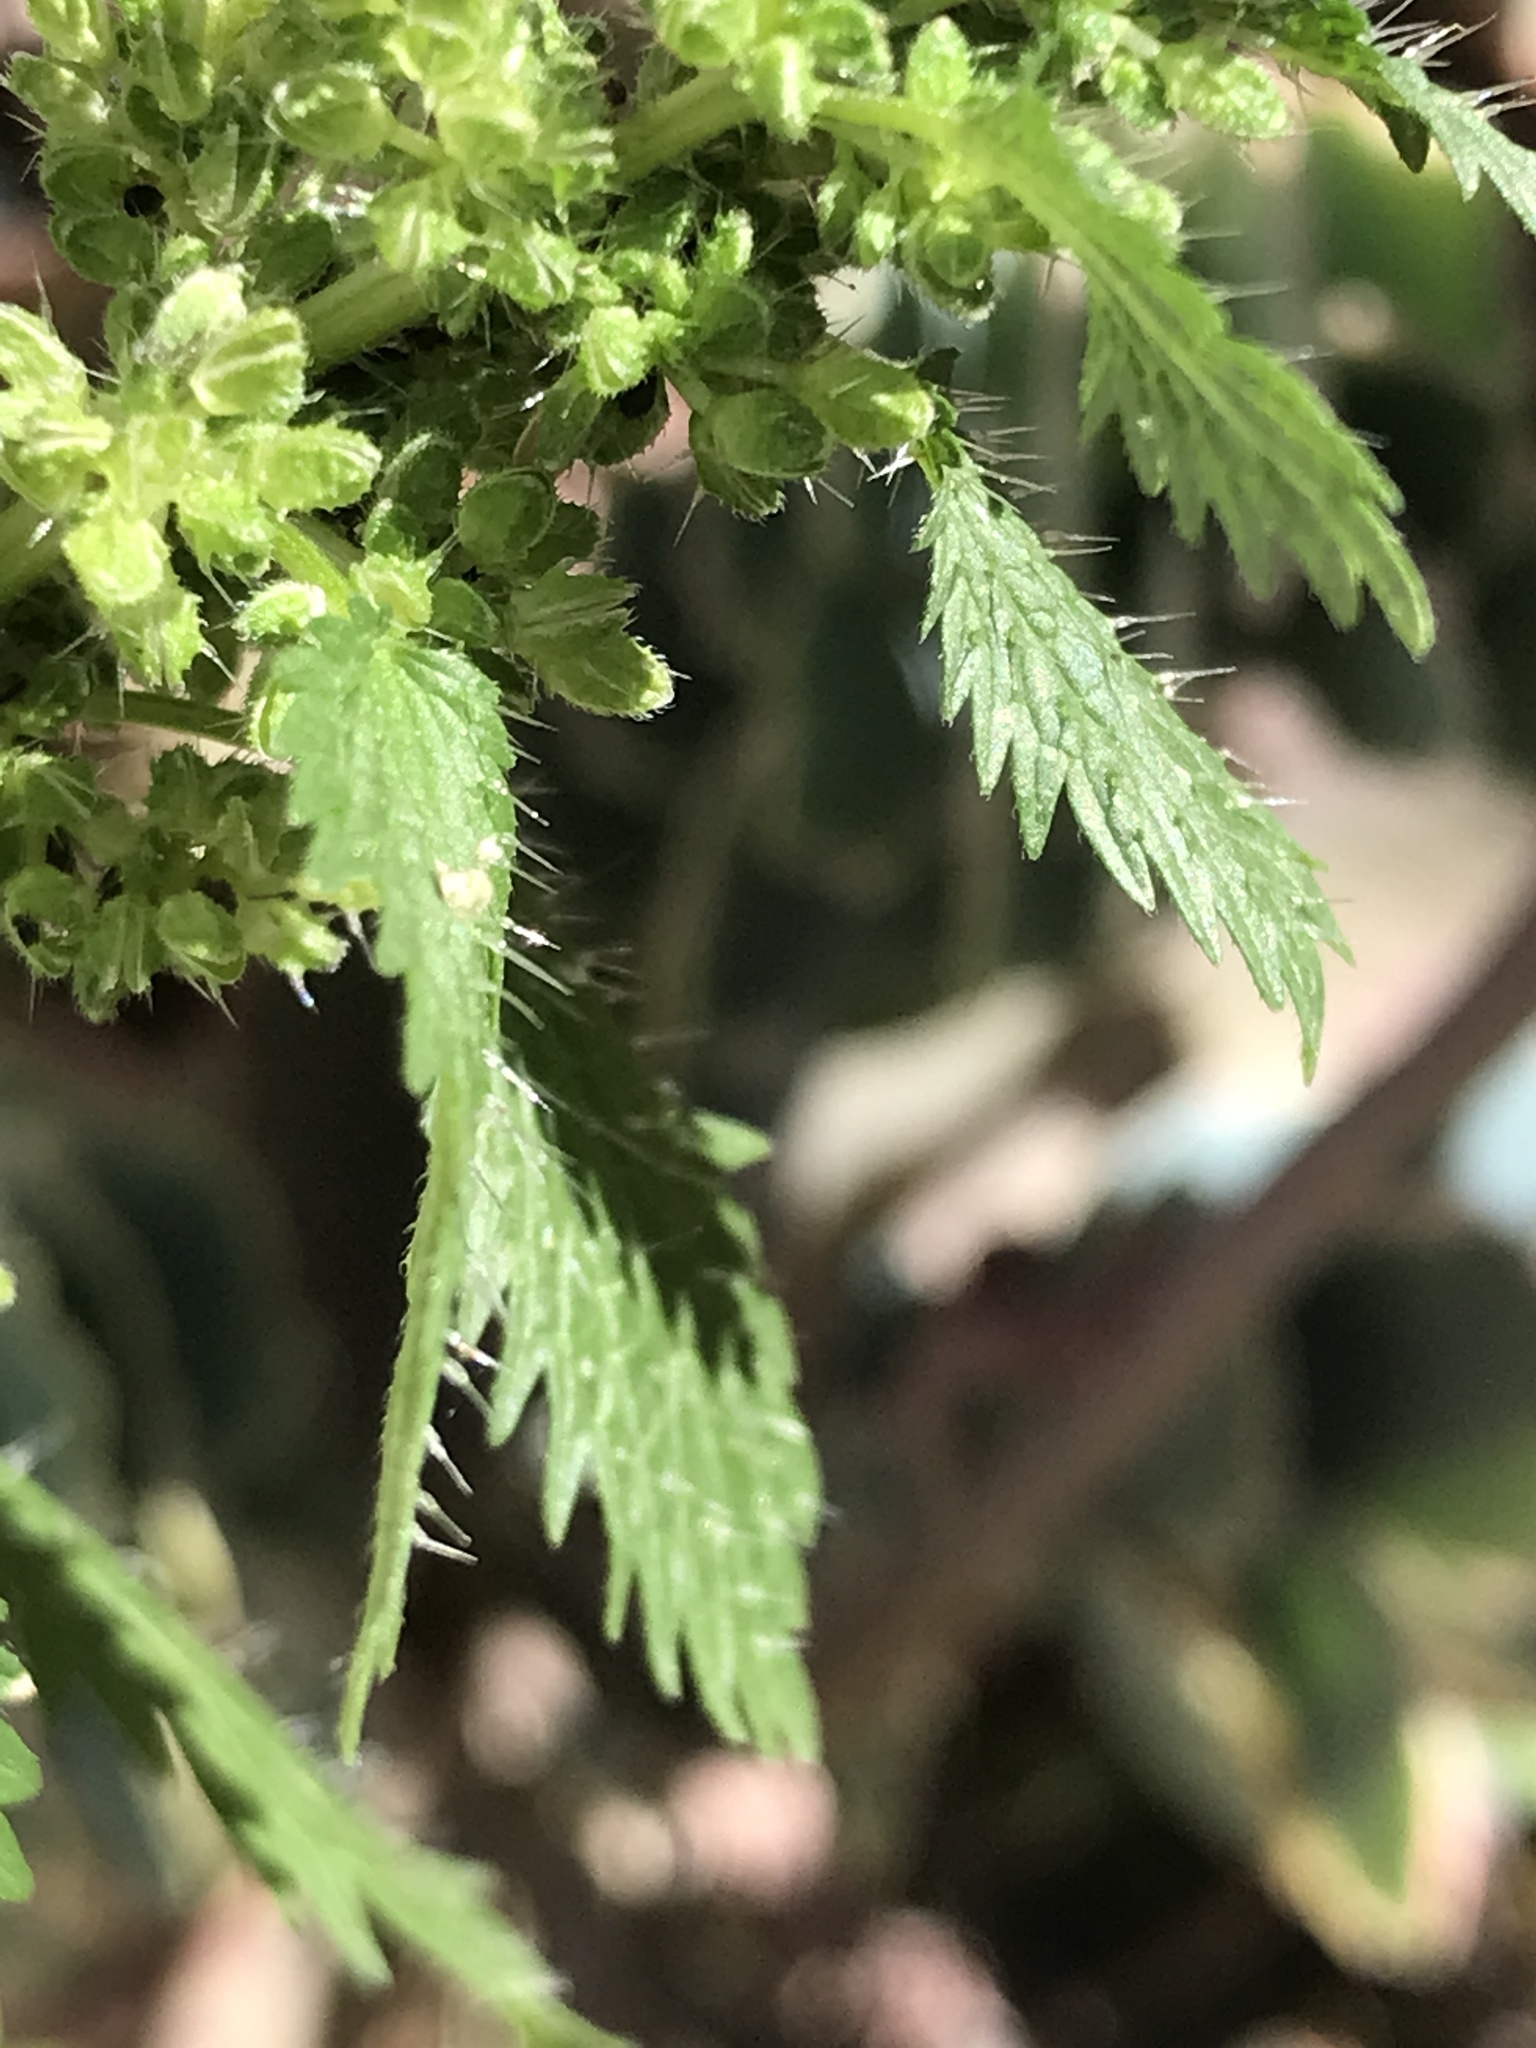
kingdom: Plantae
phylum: Tracheophyta
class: Magnoliopsida
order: Rosales
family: Urticaceae
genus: Urtica
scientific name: Urtica urens
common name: Dwarf nettle
